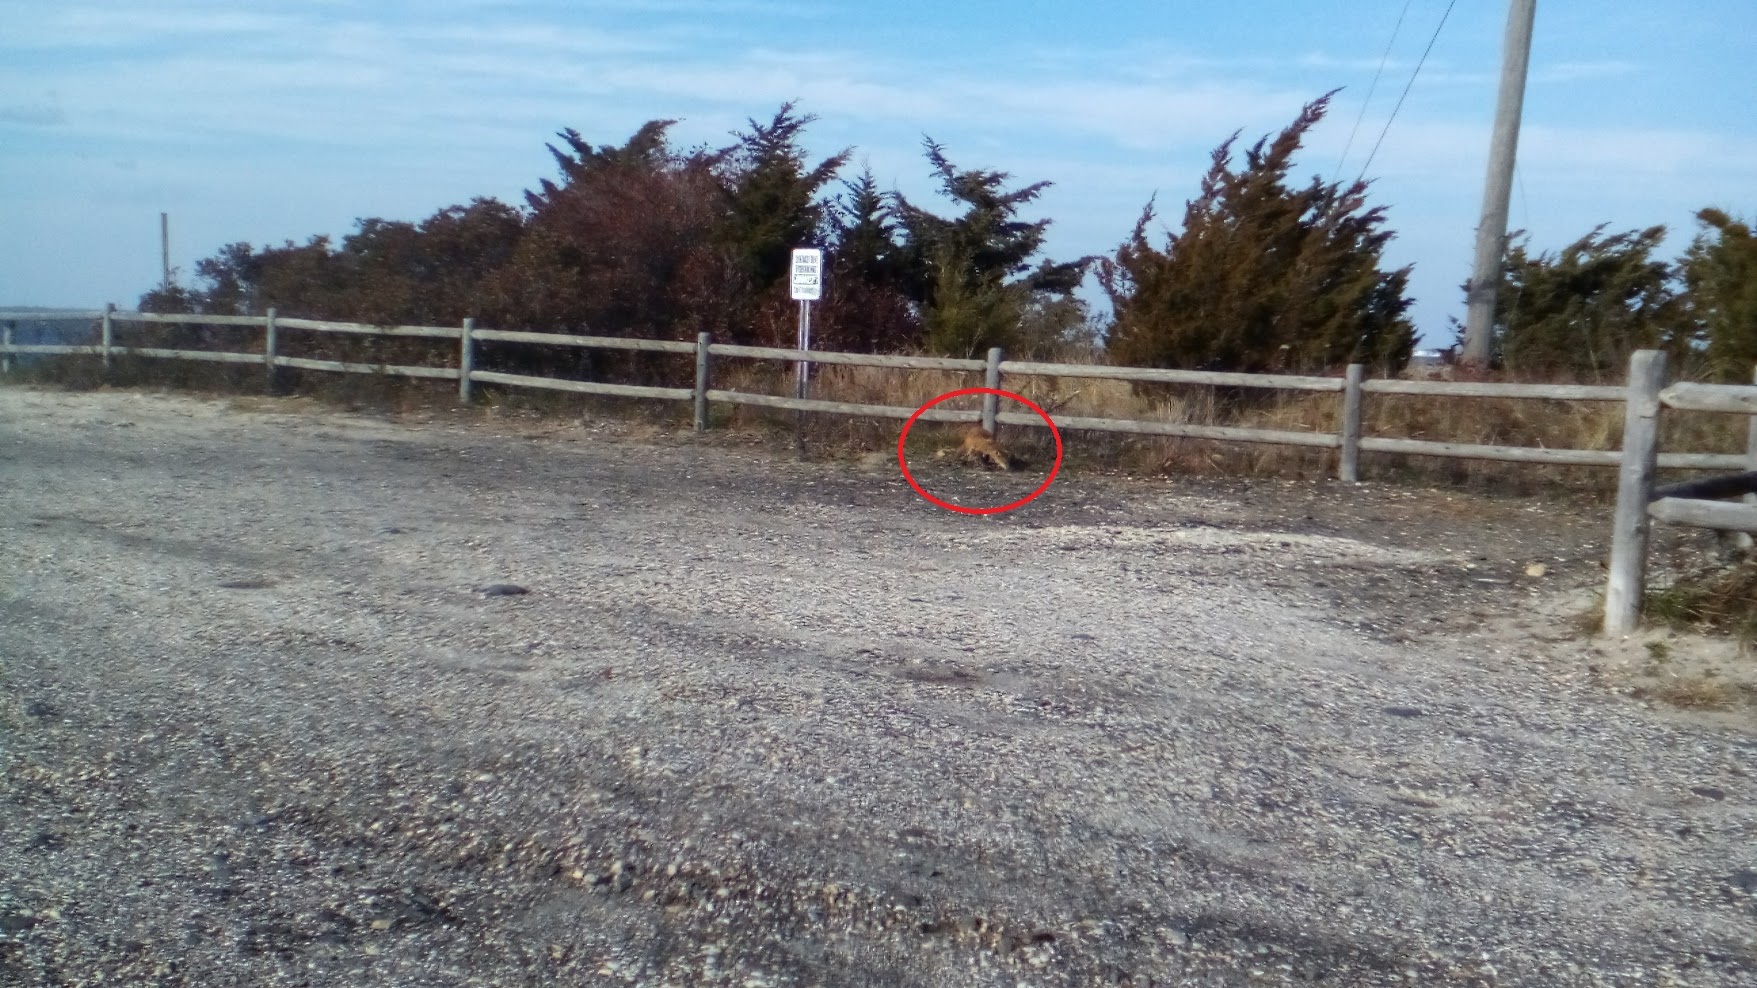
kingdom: Animalia
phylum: Arthropoda
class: Arachnida
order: Sarcoptiformes
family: Sarcoptidae
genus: Sarcoptes
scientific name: Sarcoptes scabiei
